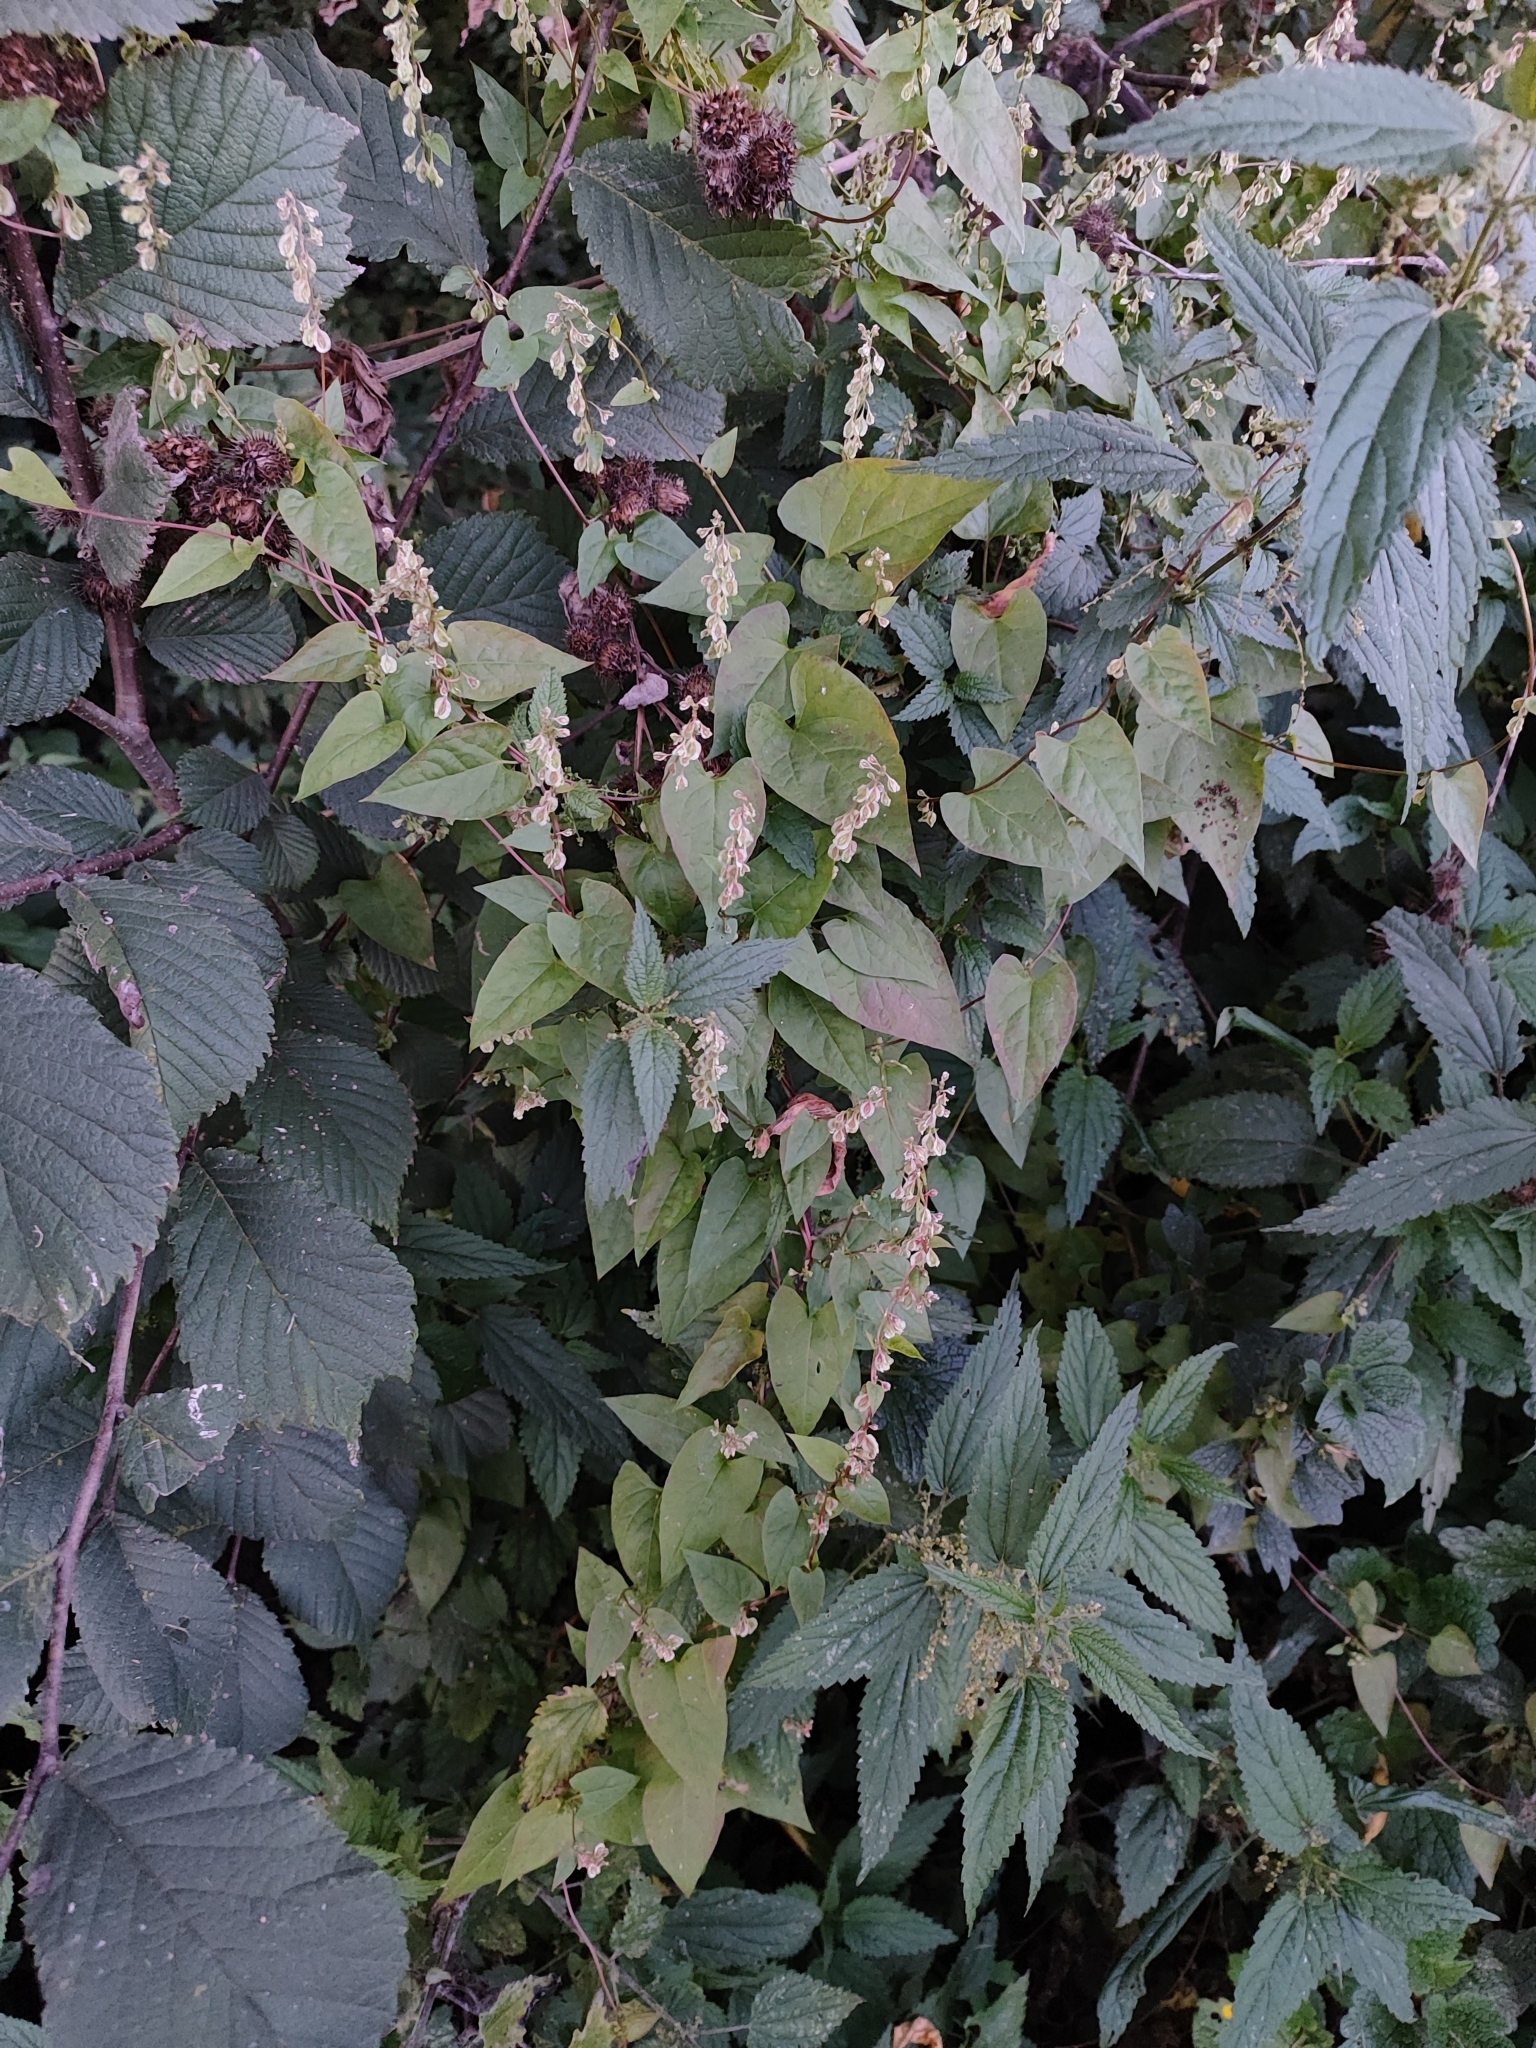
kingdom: Plantae
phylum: Tracheophyta
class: Magnoliopsida
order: Caryophyllales
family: Polygonaceae
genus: Fallopia
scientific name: Fallopia dumetorum
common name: Copse-bindweed
